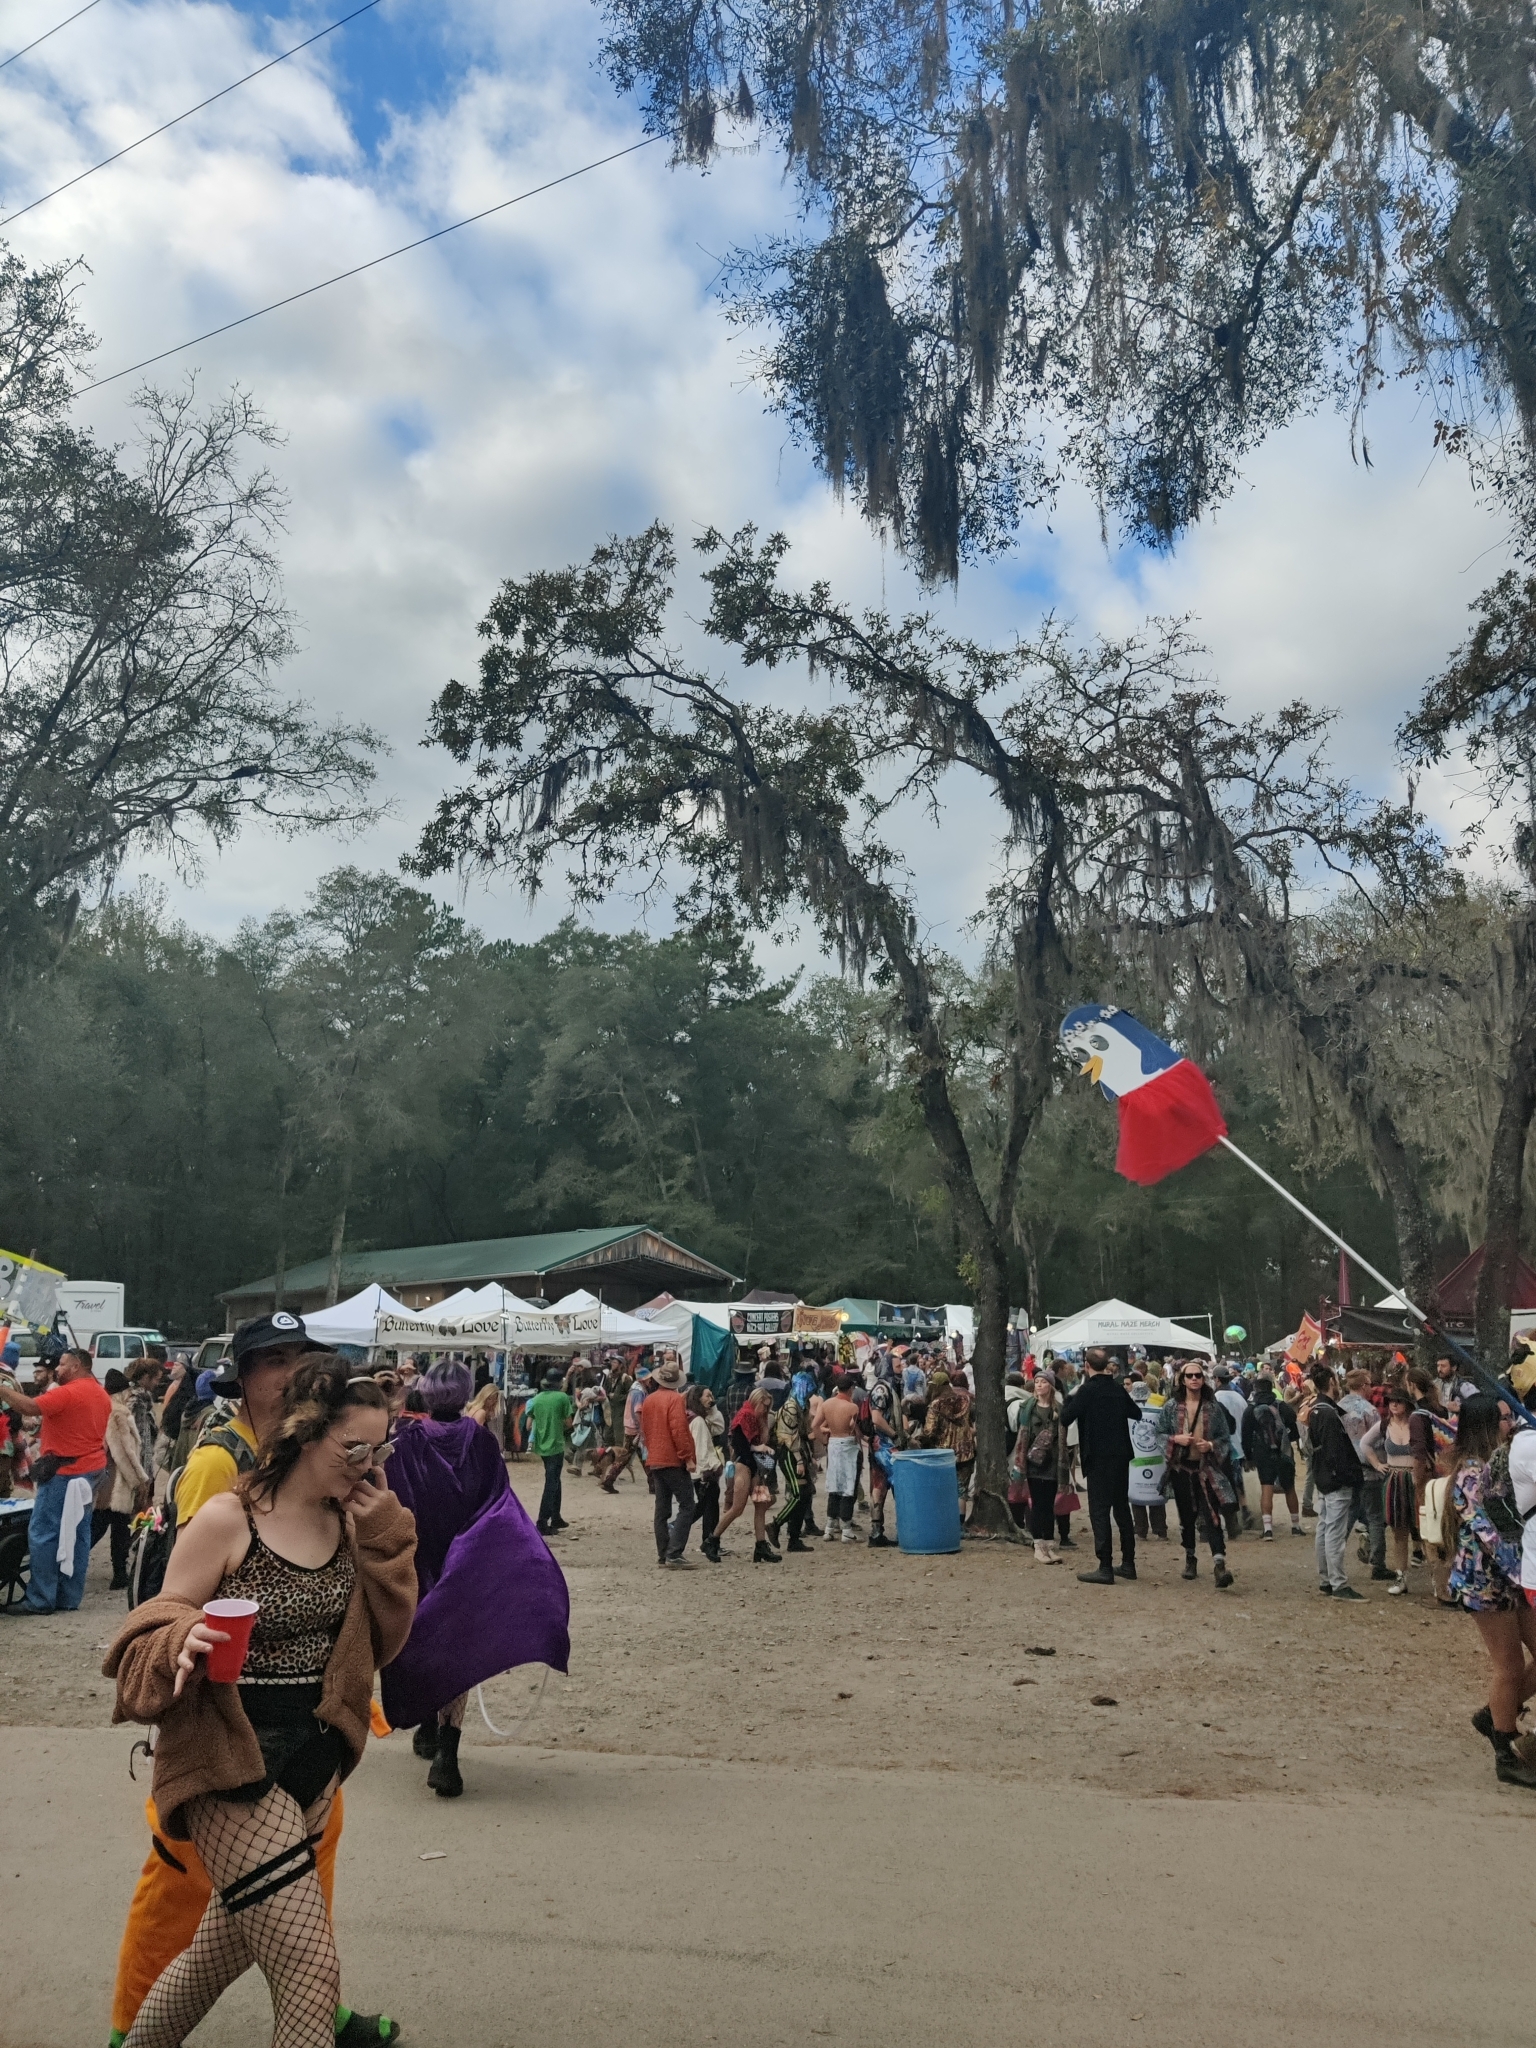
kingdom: Plantae
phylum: Tracheophyta
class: Magnoliopsida
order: Fagales
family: Fagaceae
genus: Quercus
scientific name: Quercus laevis
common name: Turkey oak
